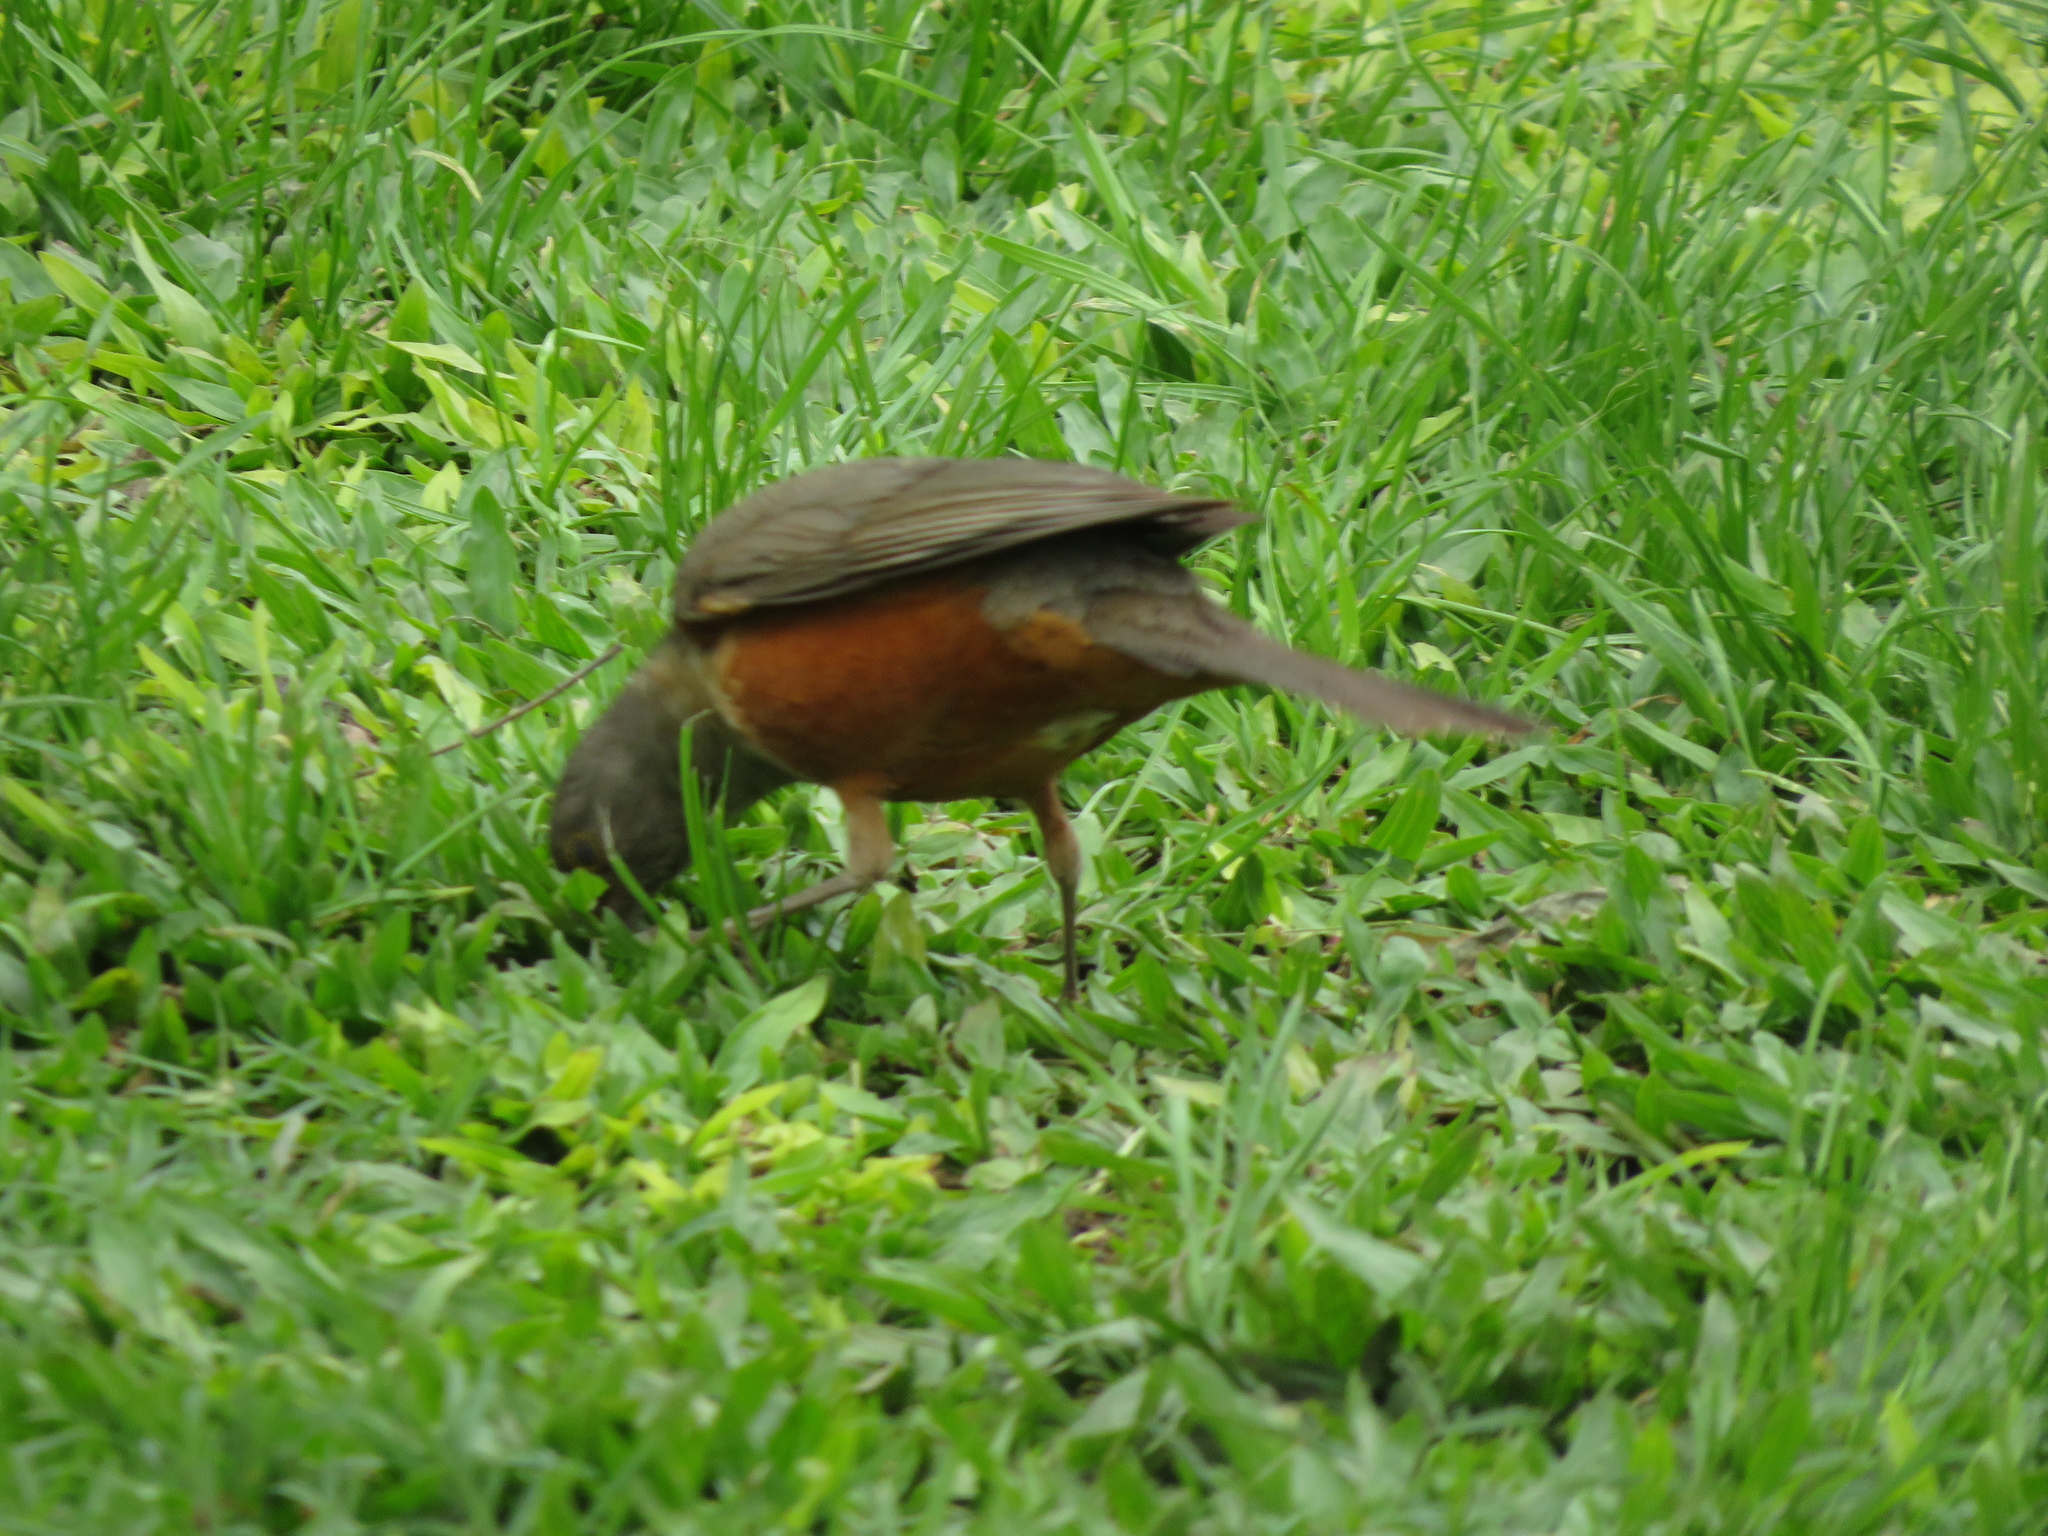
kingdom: Animalia
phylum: Chordata
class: Aves
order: Passeriformes
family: Turdidae
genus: Turdus
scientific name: Turdus rufiventris
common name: Rufous-bellied thrush
